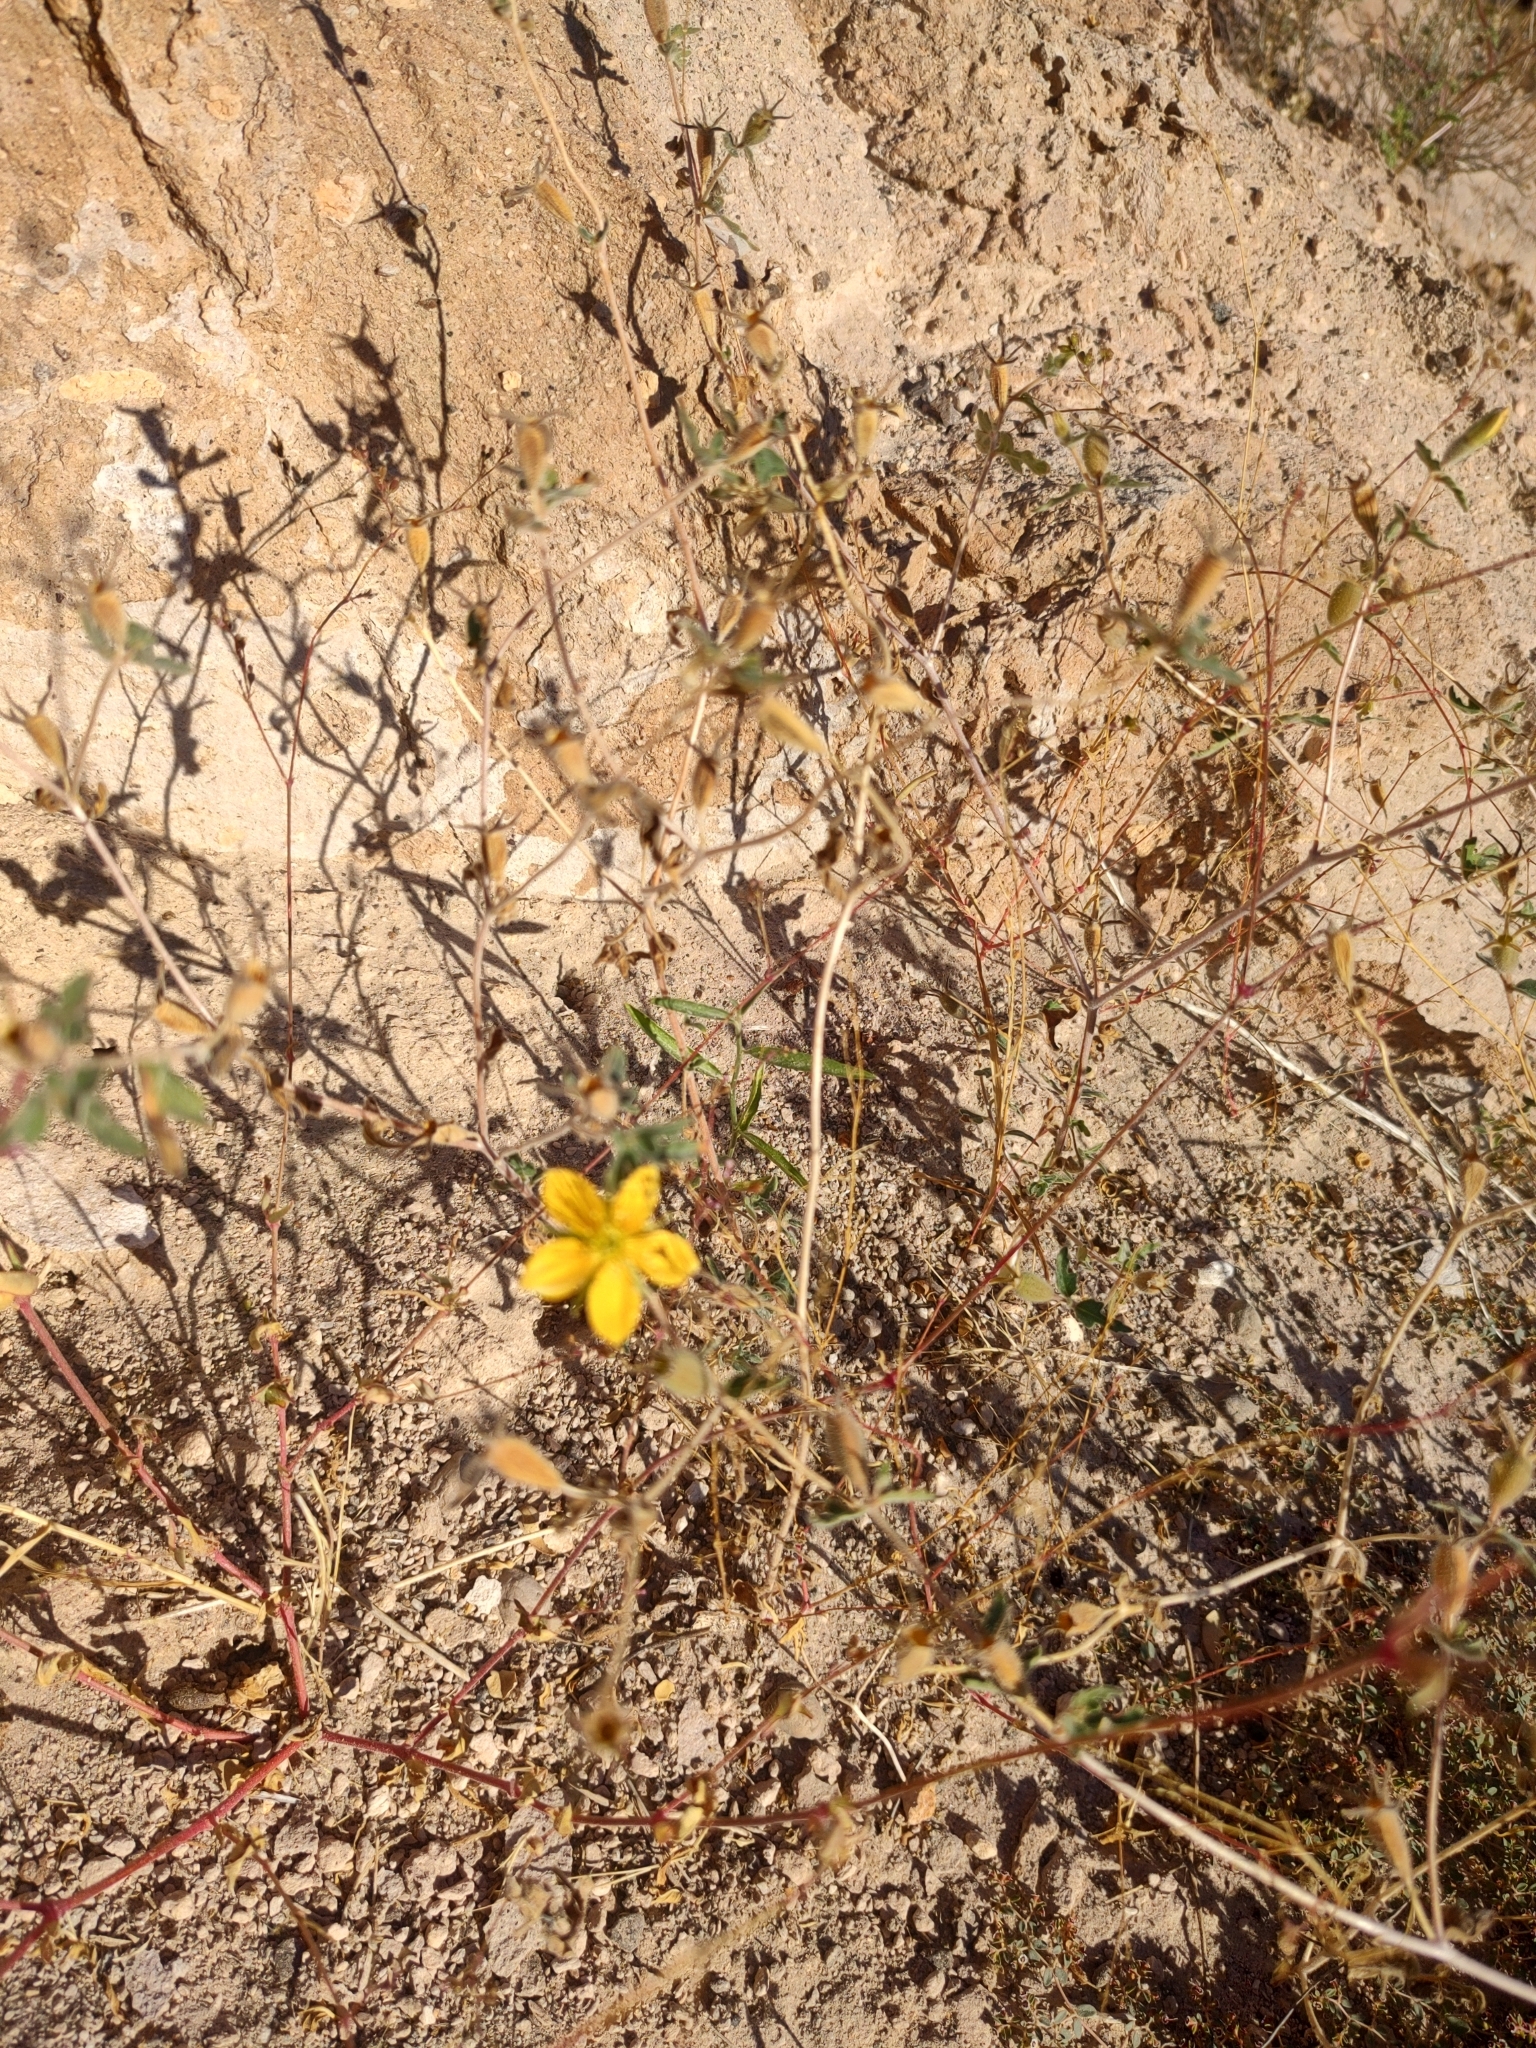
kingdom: Plantae
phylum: Tracheophyta
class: Magnoliopsida
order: Cornales
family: Loasaceae
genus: Mentzelia
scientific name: Mentzelia adhaerens
